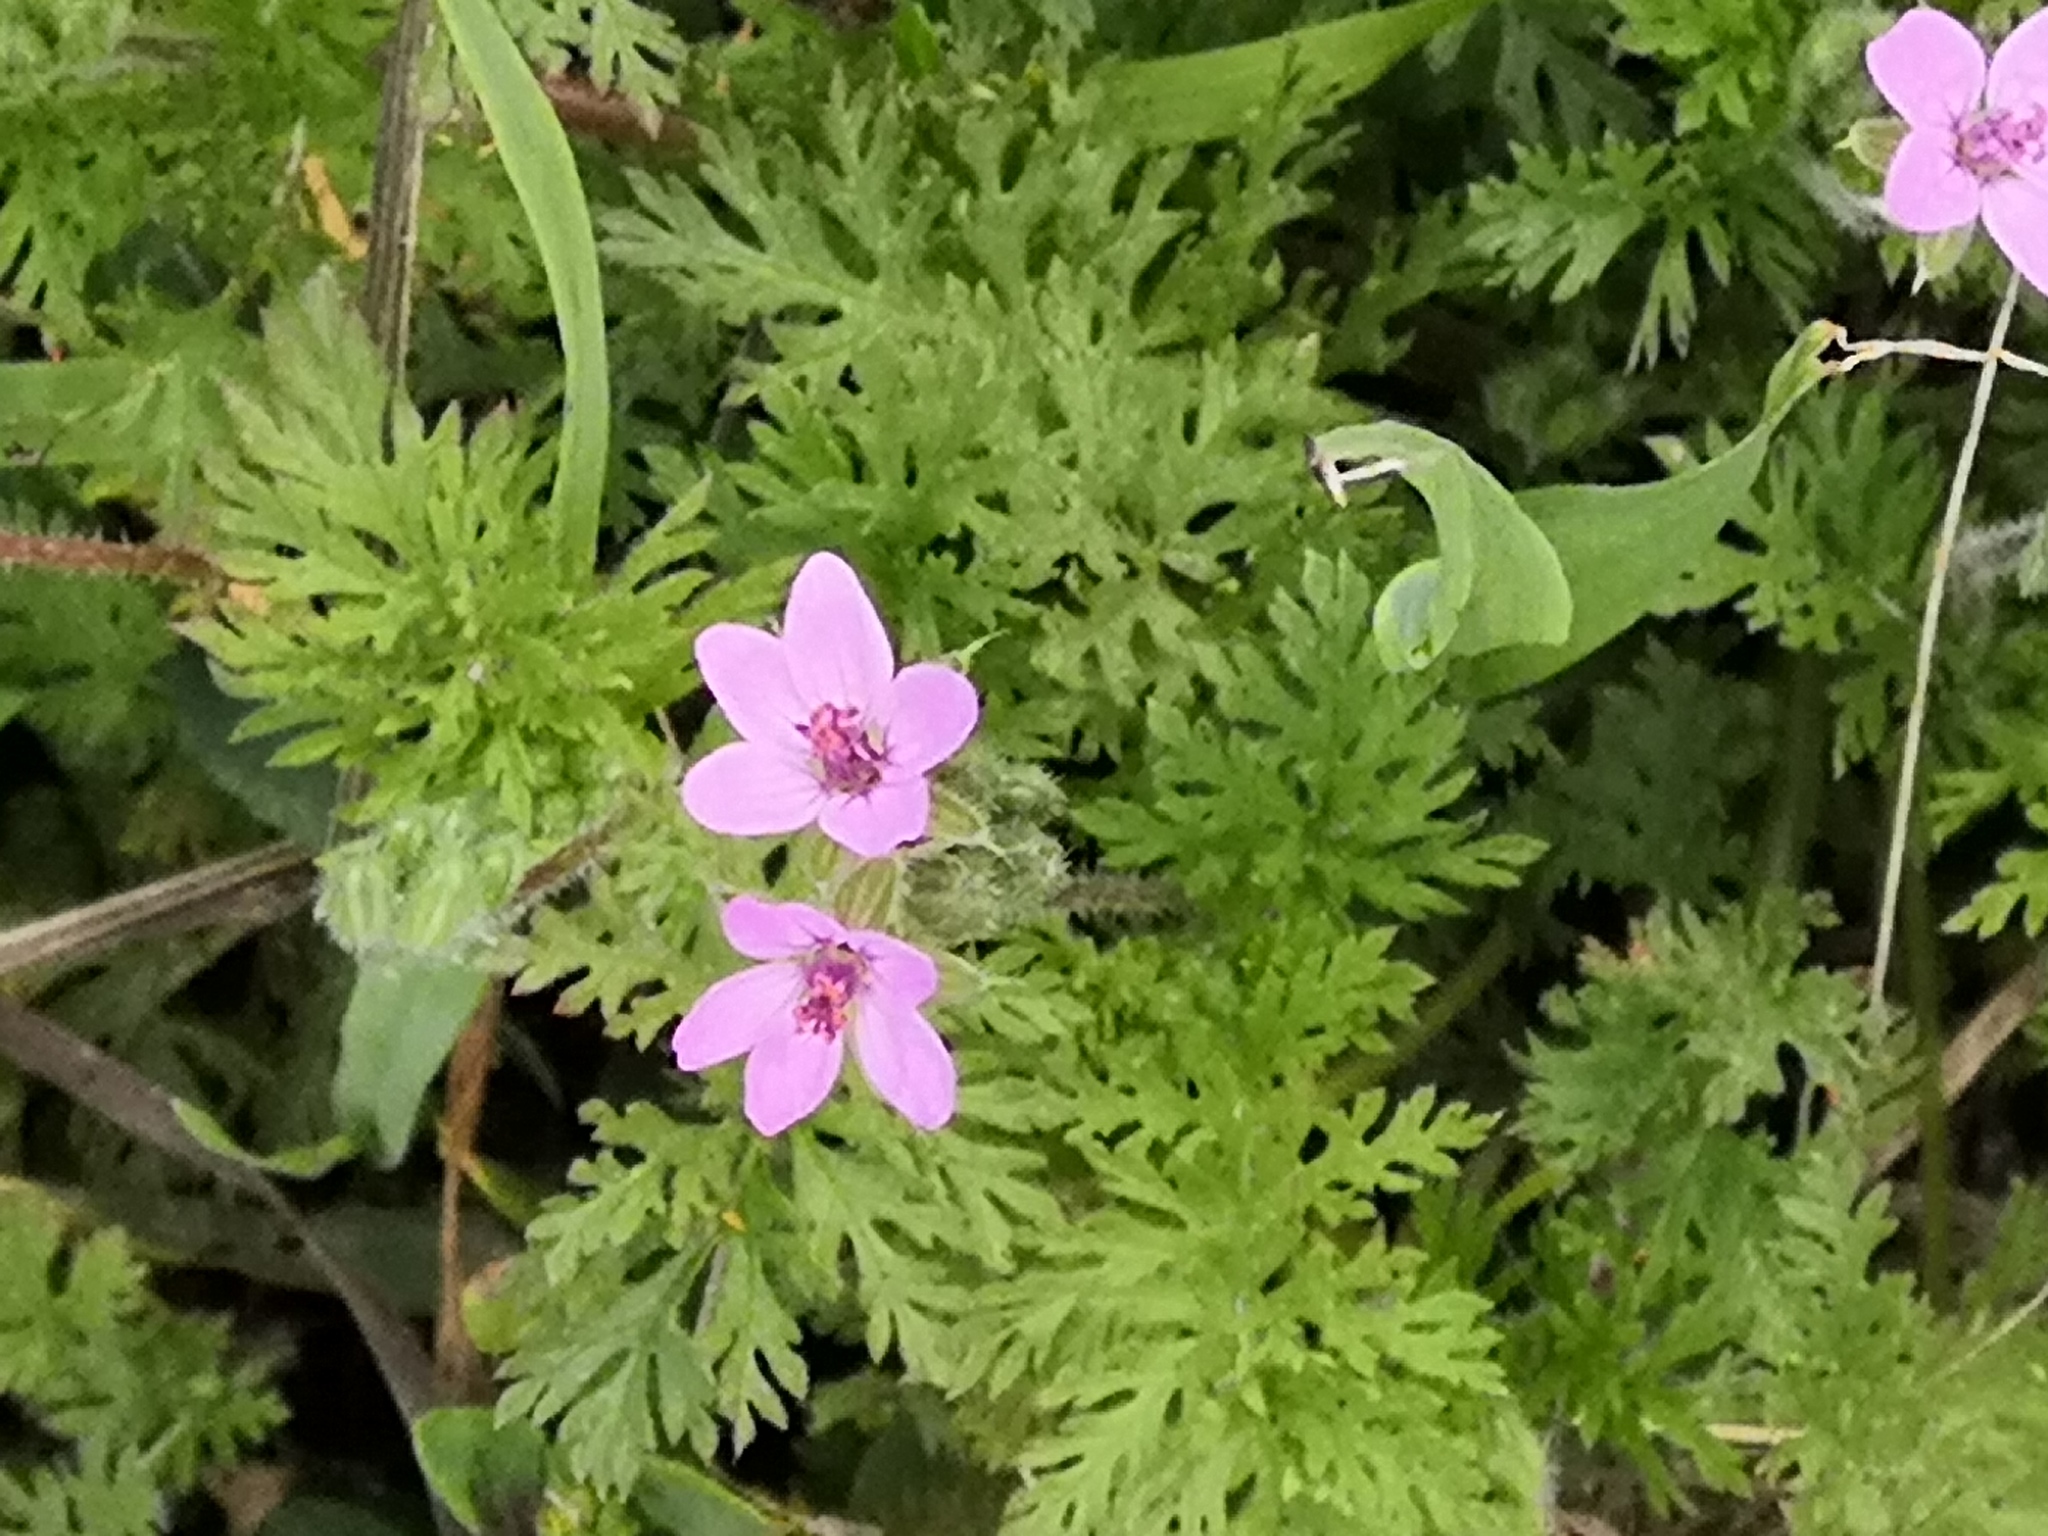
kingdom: Plantae
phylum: Tracheophyta
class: Magnoliopsida
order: Geraniales
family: Geraniaceae
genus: Erodium
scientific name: Erodium cicutarium
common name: Common stork's-bill
